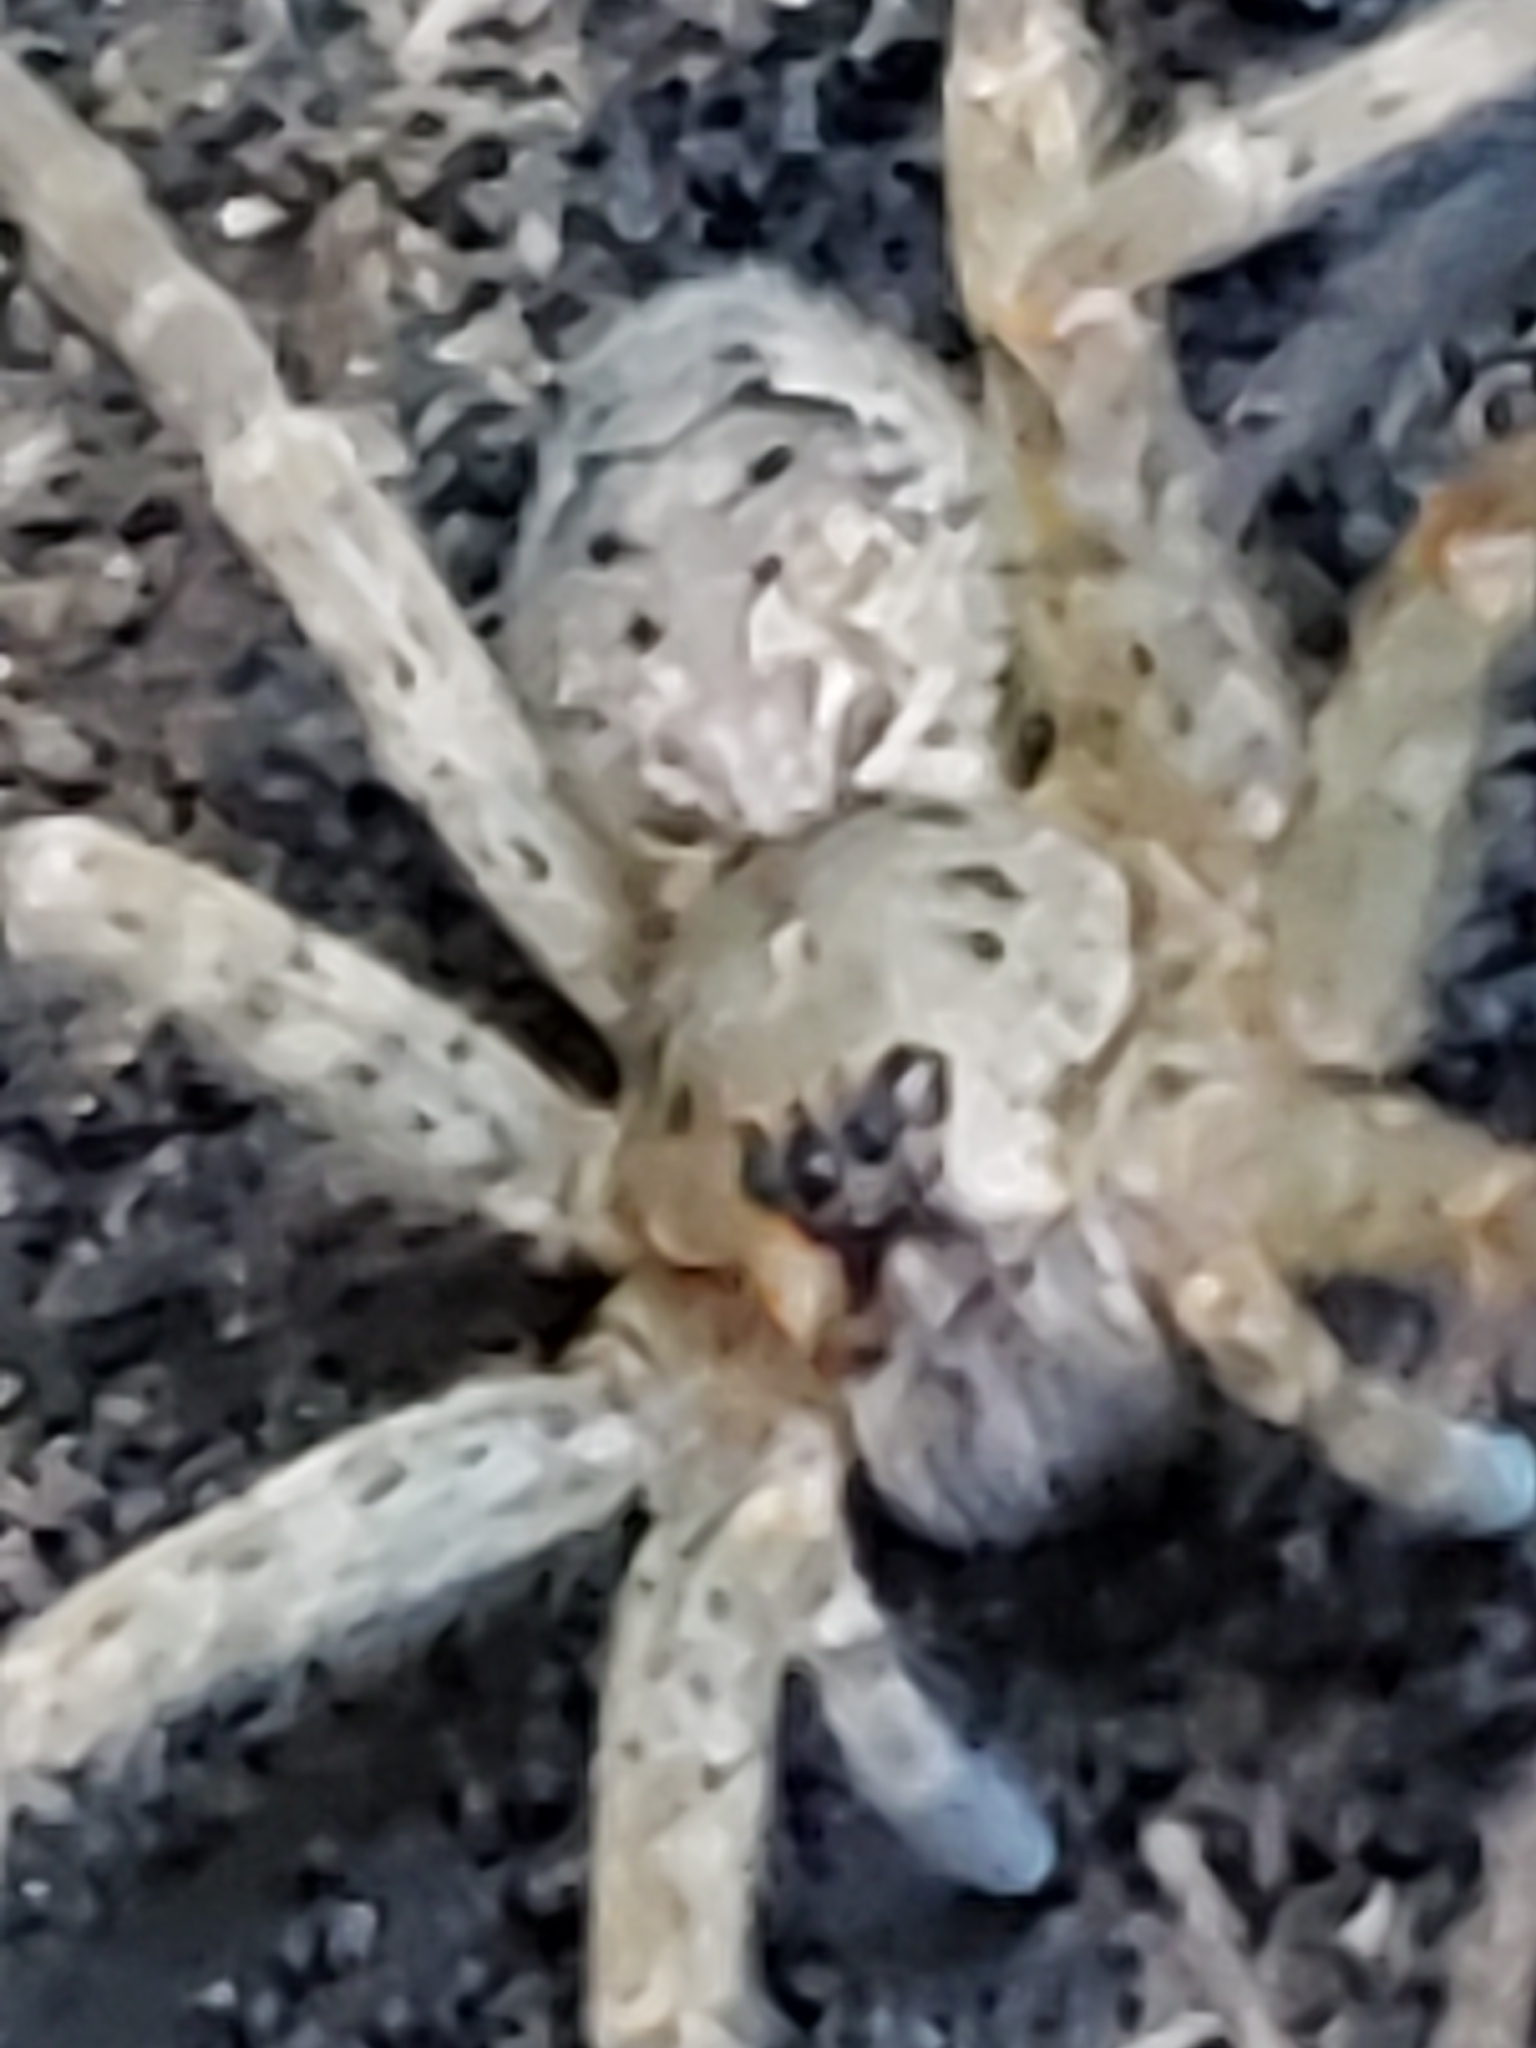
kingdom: Animalia
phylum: Arthropoda
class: Arachnida
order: Araneae
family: Pisauridae
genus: Dolomedes
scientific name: Dolomedes tenebrosus
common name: Dark fishing spider
